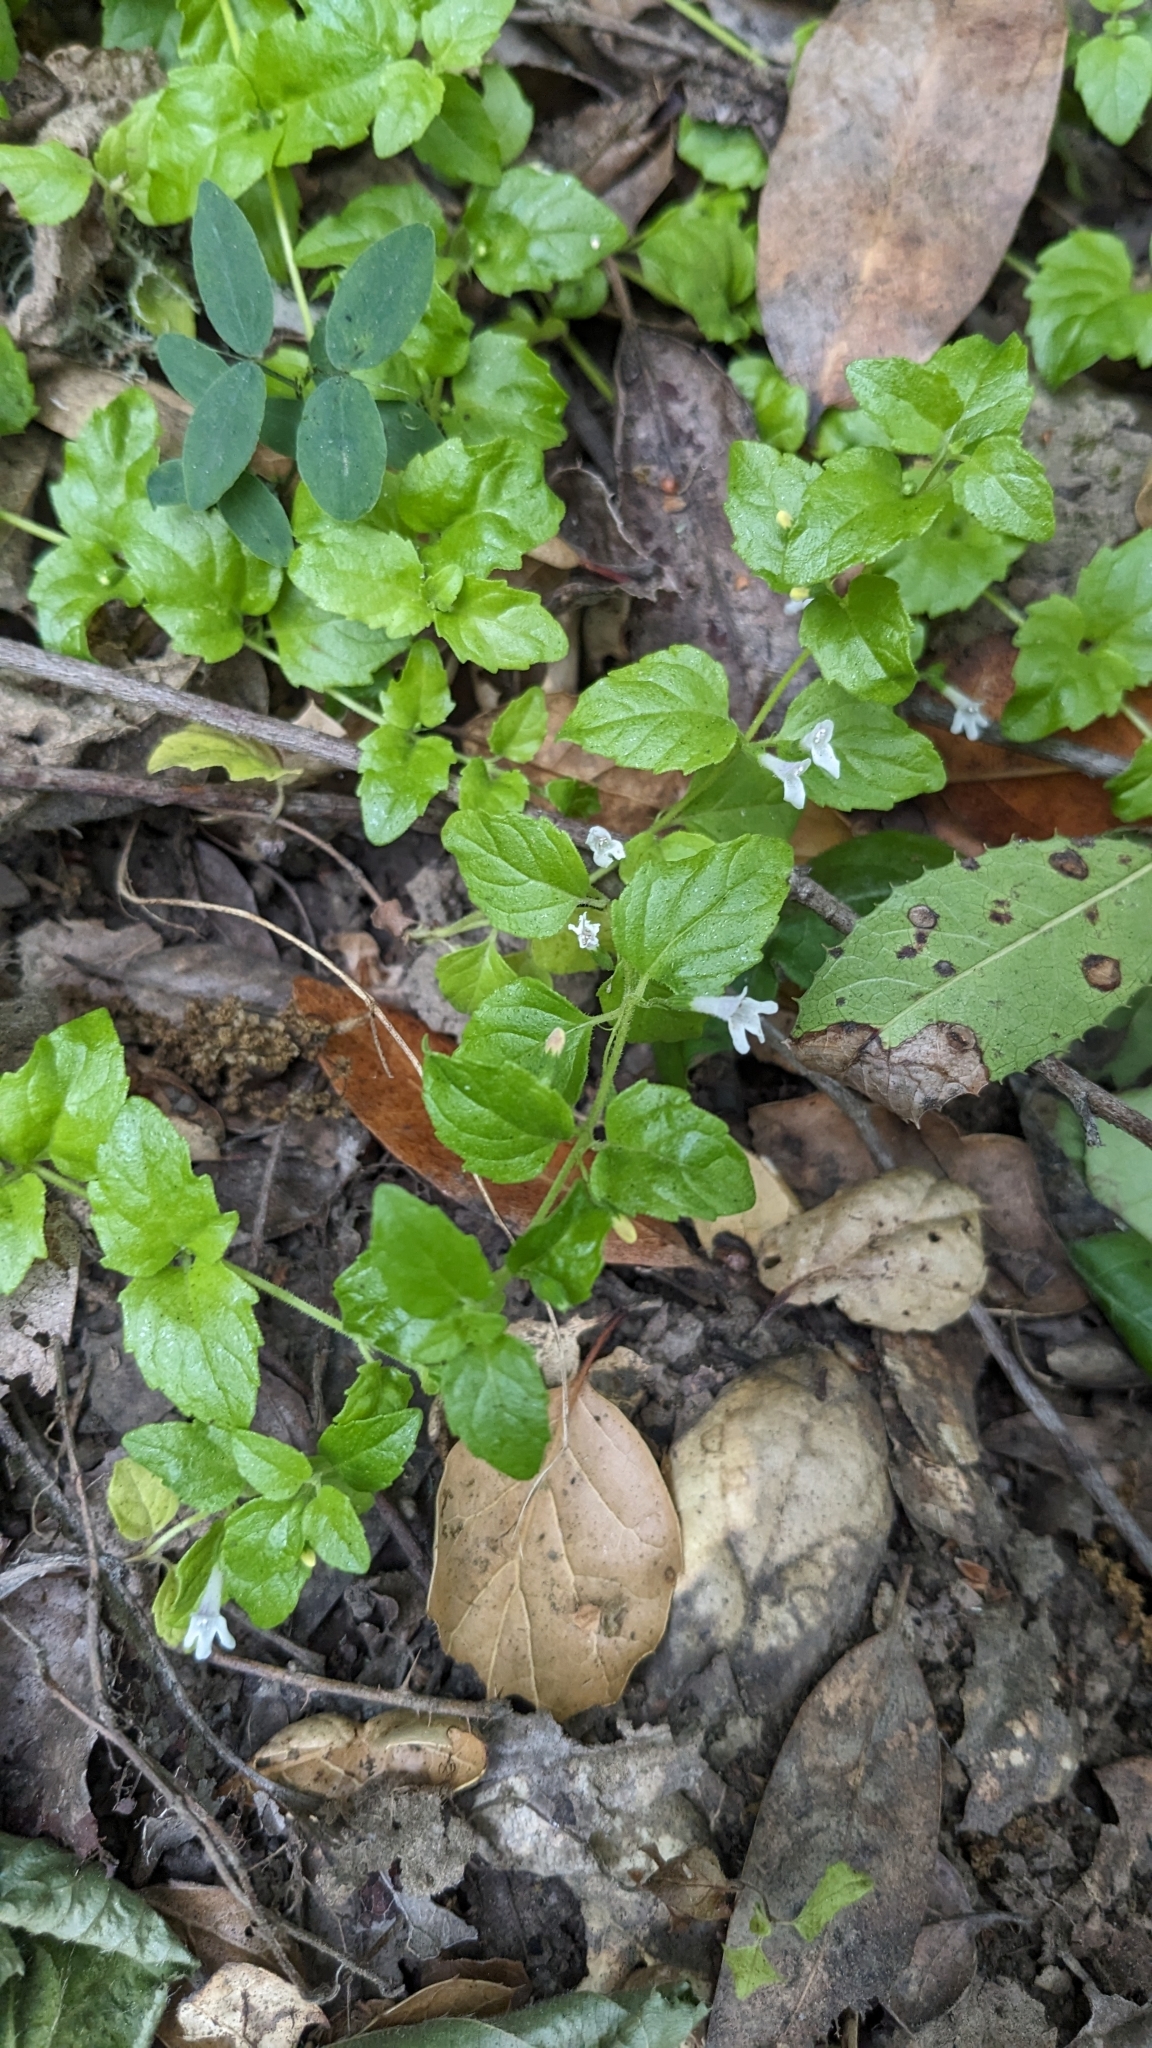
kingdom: Plantae
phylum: Tracheophyta
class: Magnoliopsida
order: Lamiales
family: Lamiaceae
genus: Micromeria
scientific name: Micromeria douglasii
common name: Yerba buena
